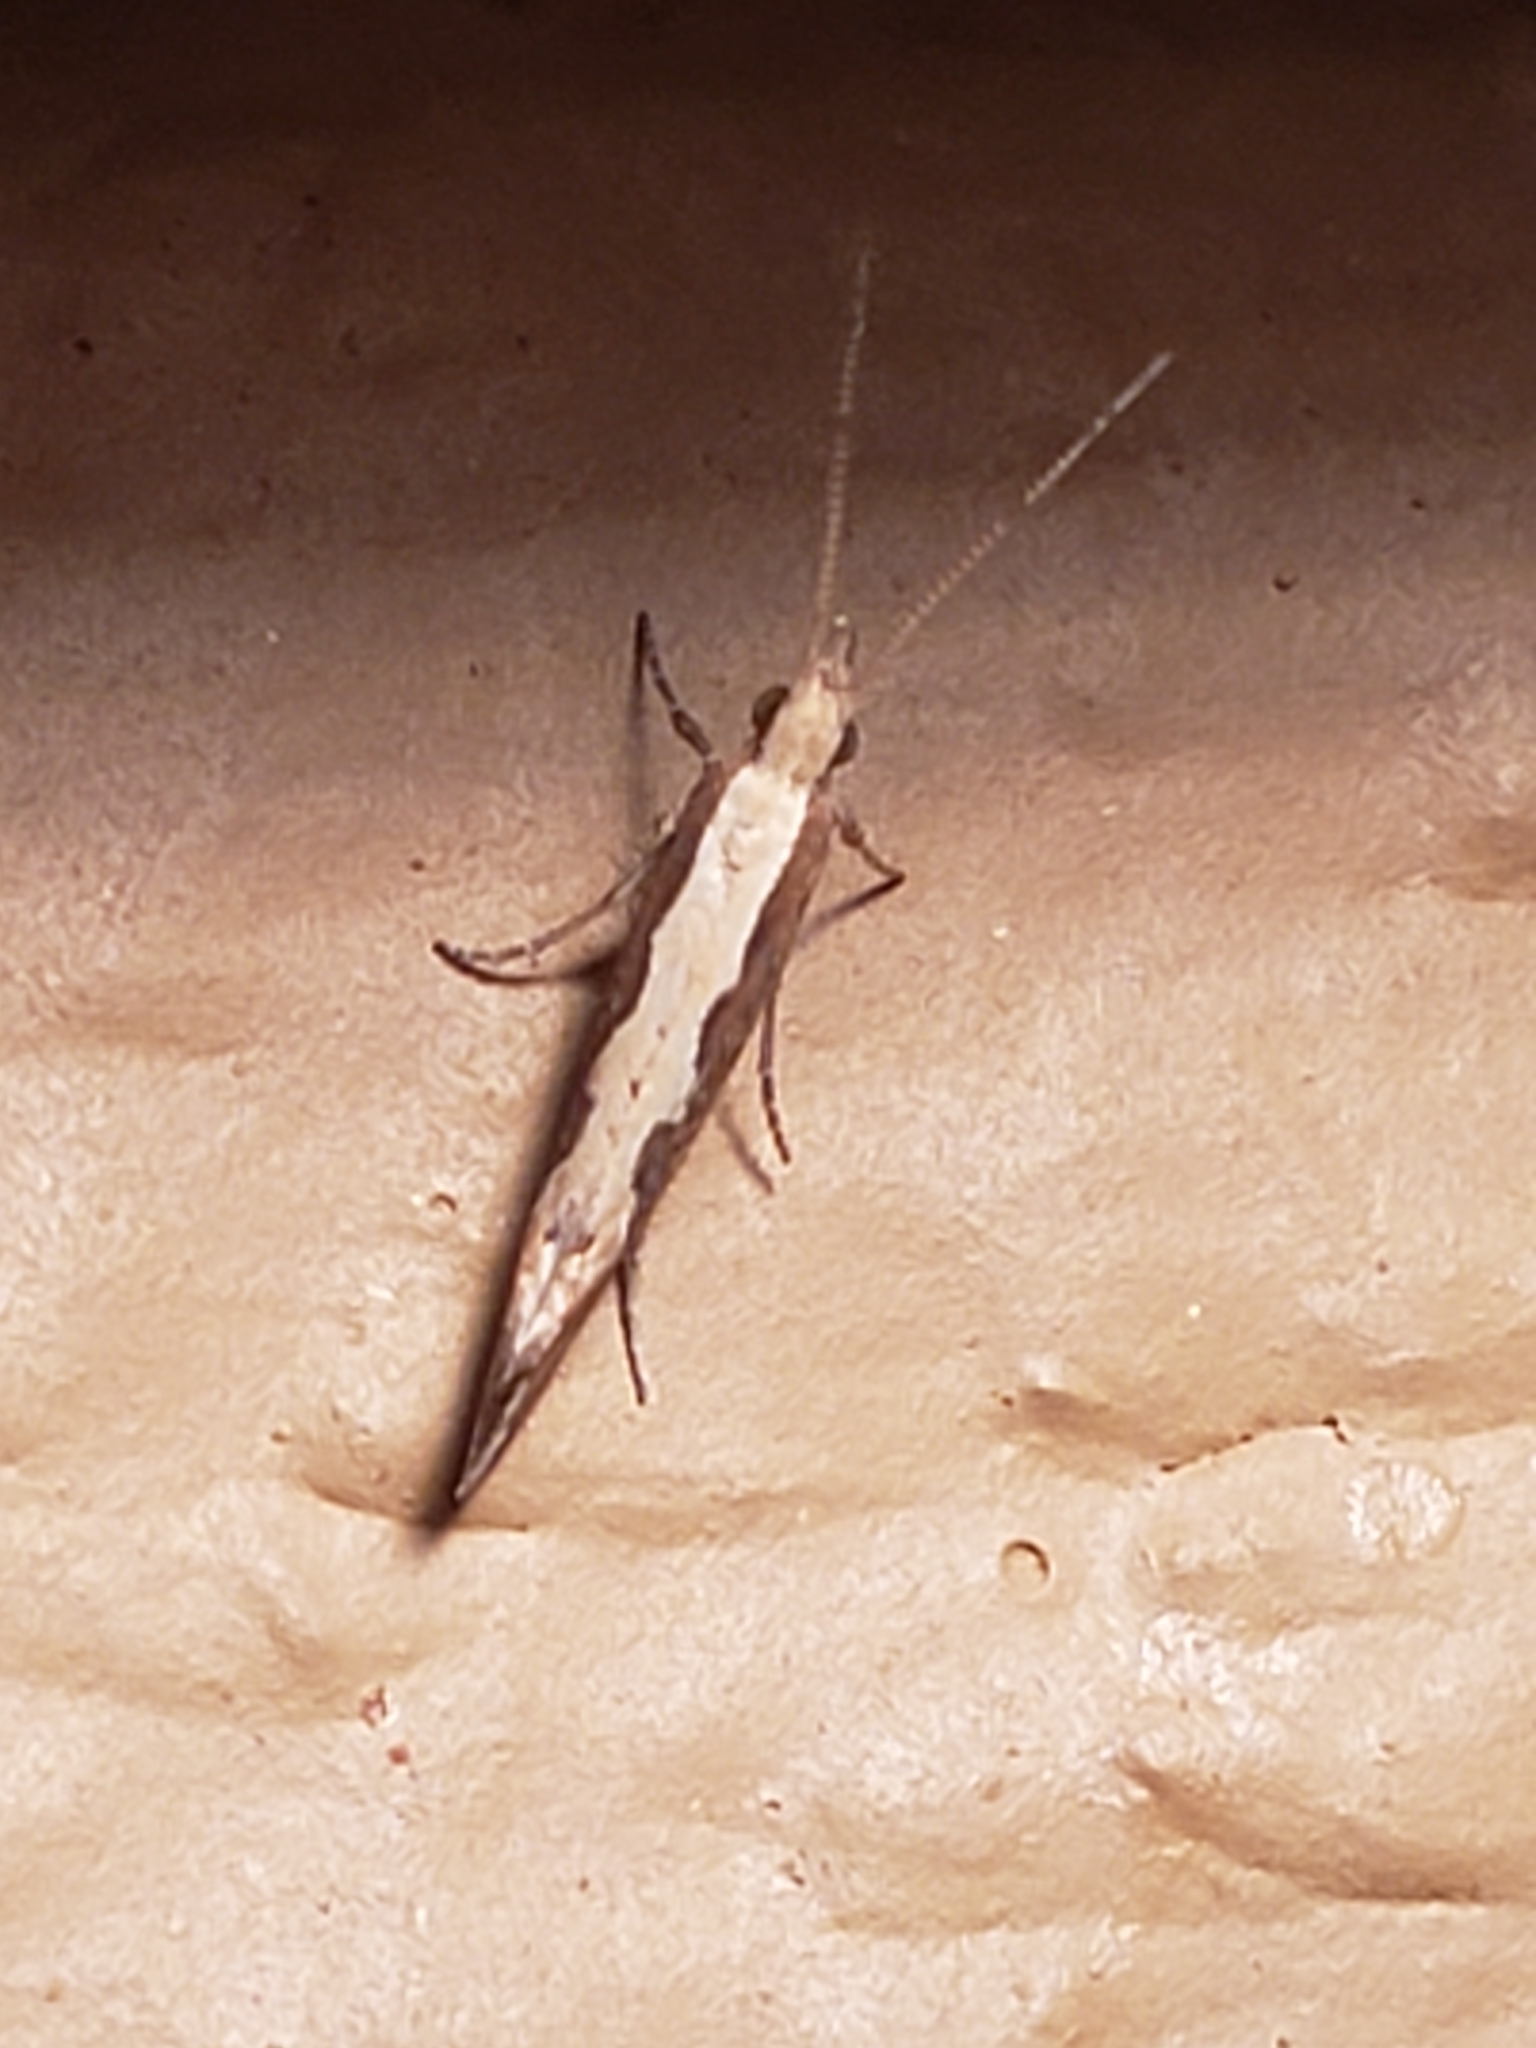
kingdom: Animalia
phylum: Arthropoda
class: Insecta
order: Lepidoptera
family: Plutellidae
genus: Plutella
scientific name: Plutella xylostella
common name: Diamond-back moth
